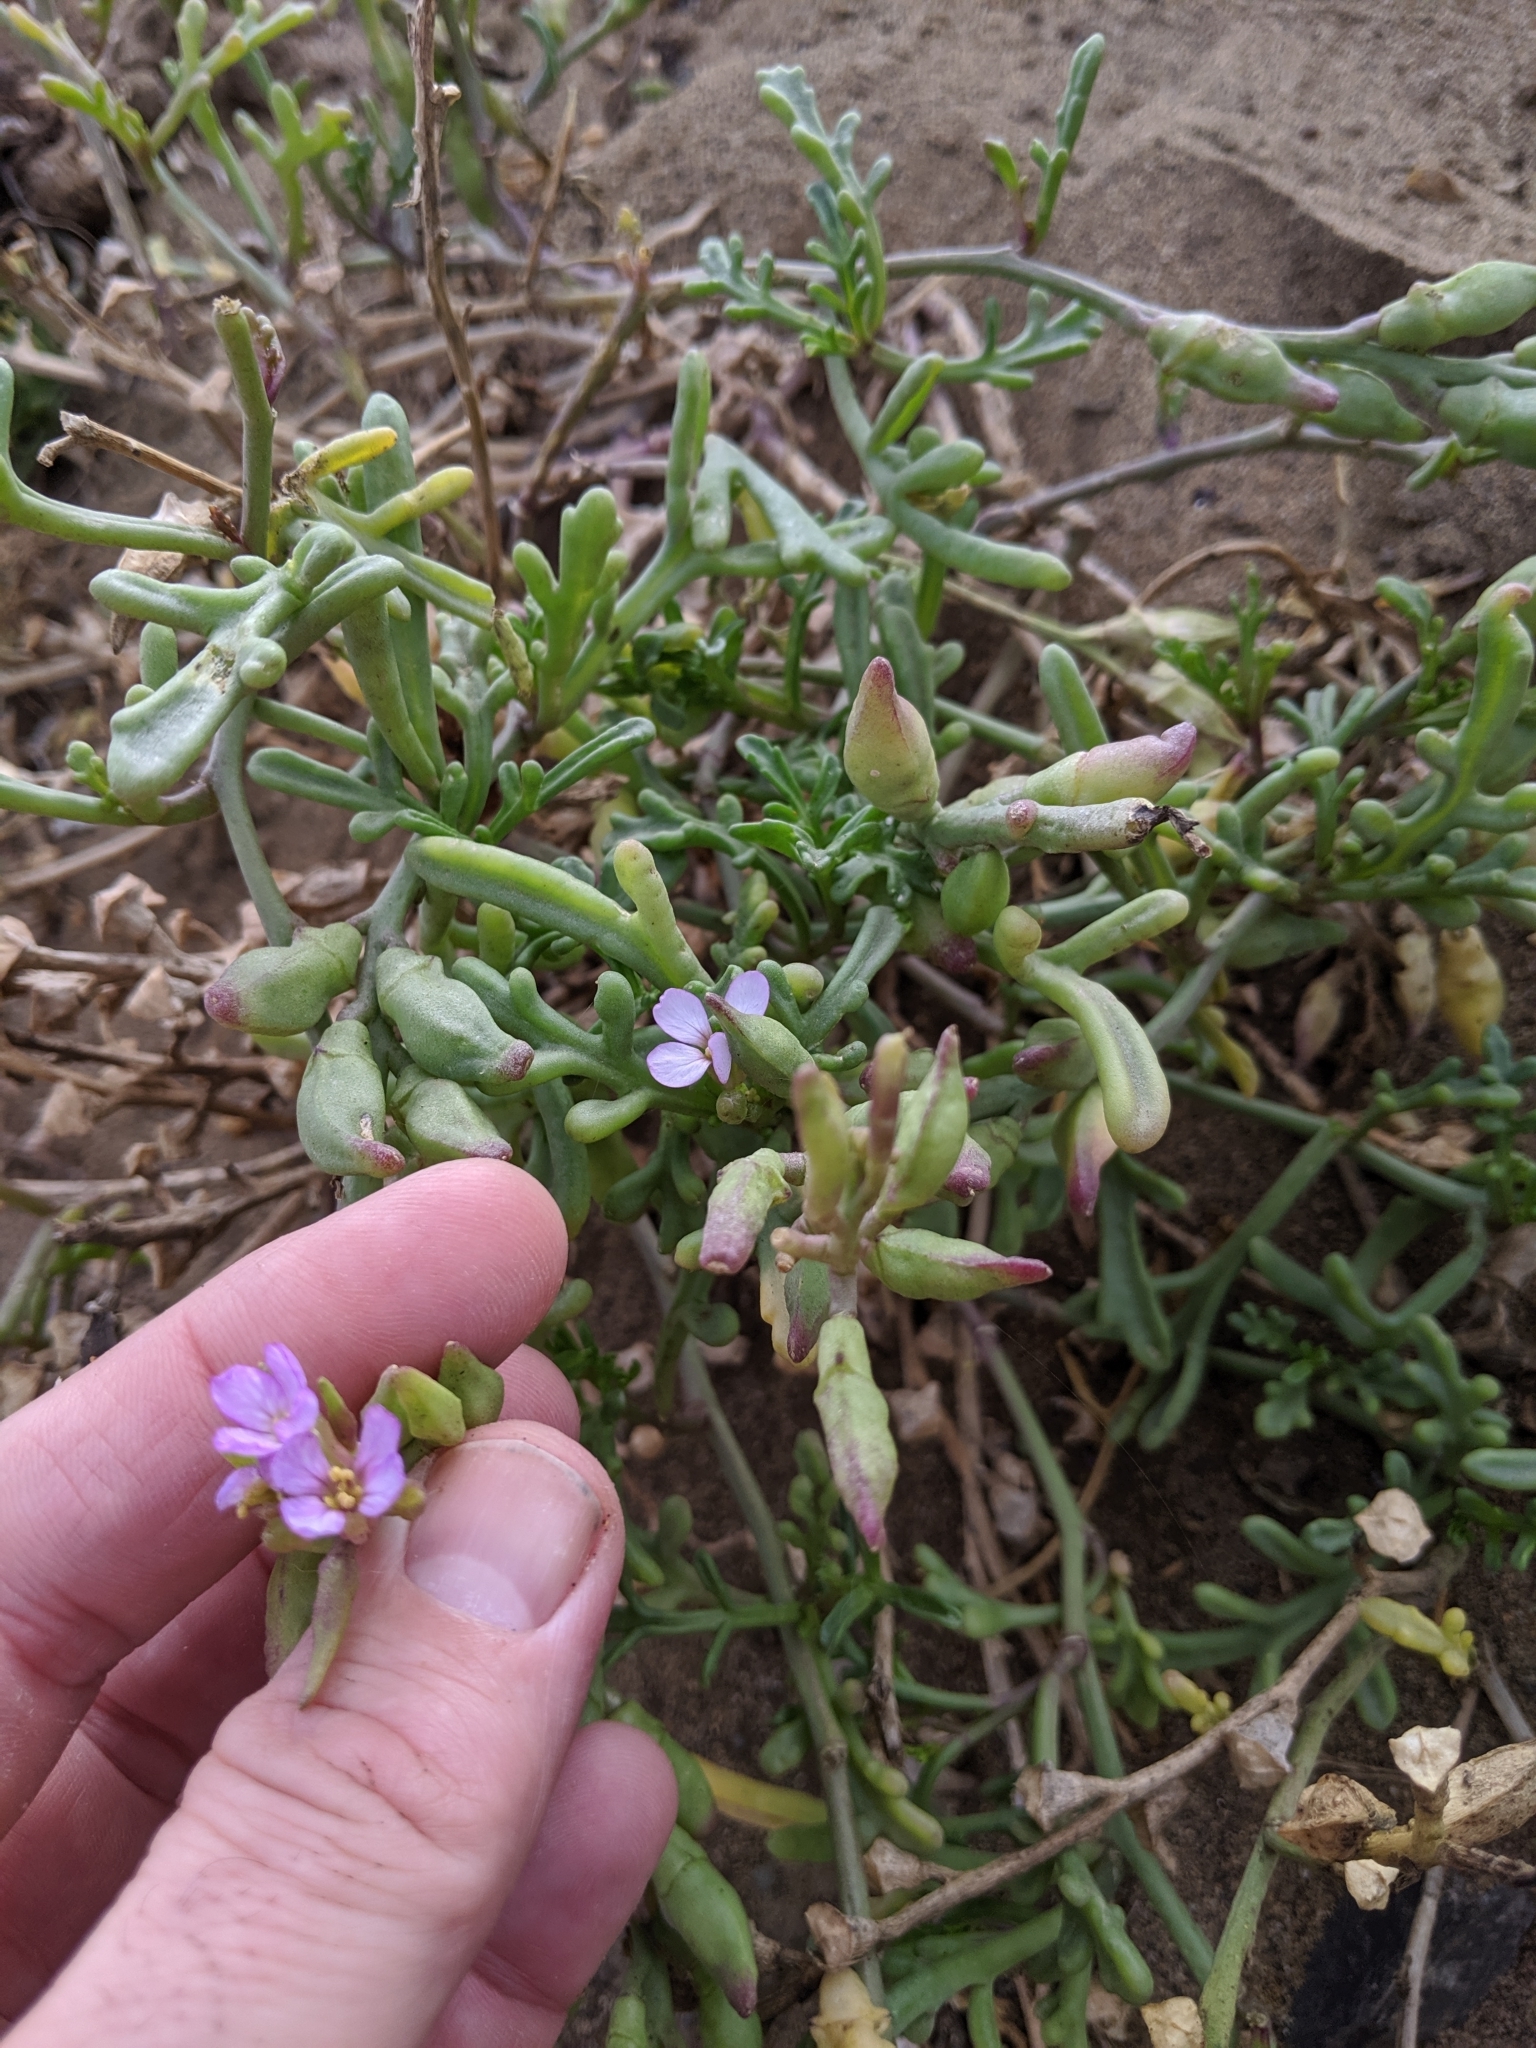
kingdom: Plantae
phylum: Tracheophyta
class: Magnoliopsida
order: Brassicales
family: Brassicaceae
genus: Cakile
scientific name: Cakile maritima
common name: Sea rocket
